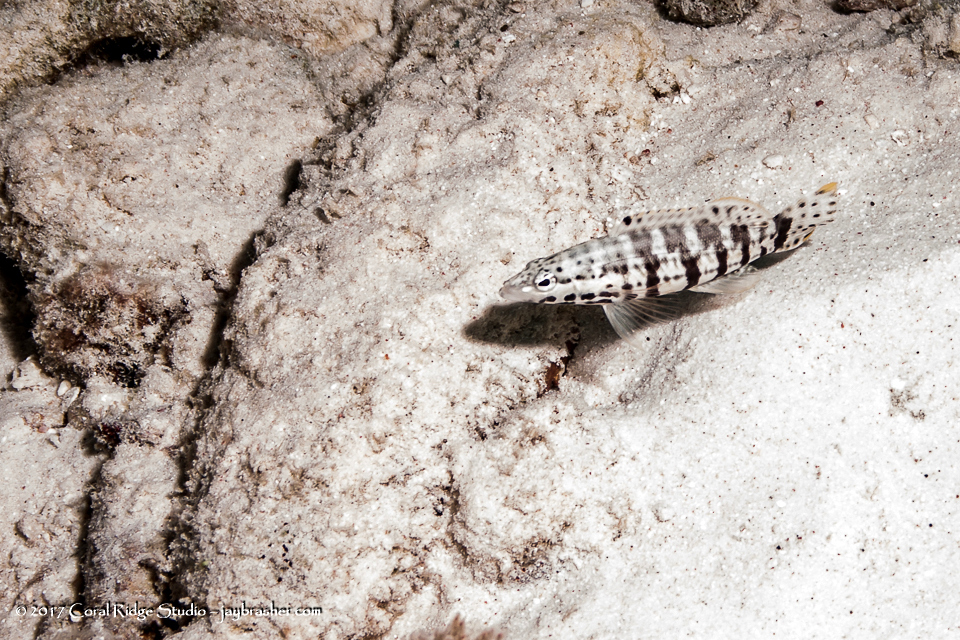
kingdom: Animalia
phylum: Chordata
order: Perciformes
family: Serranidae
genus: Serranus
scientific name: Serranus tigrinus
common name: Harlequin bass
